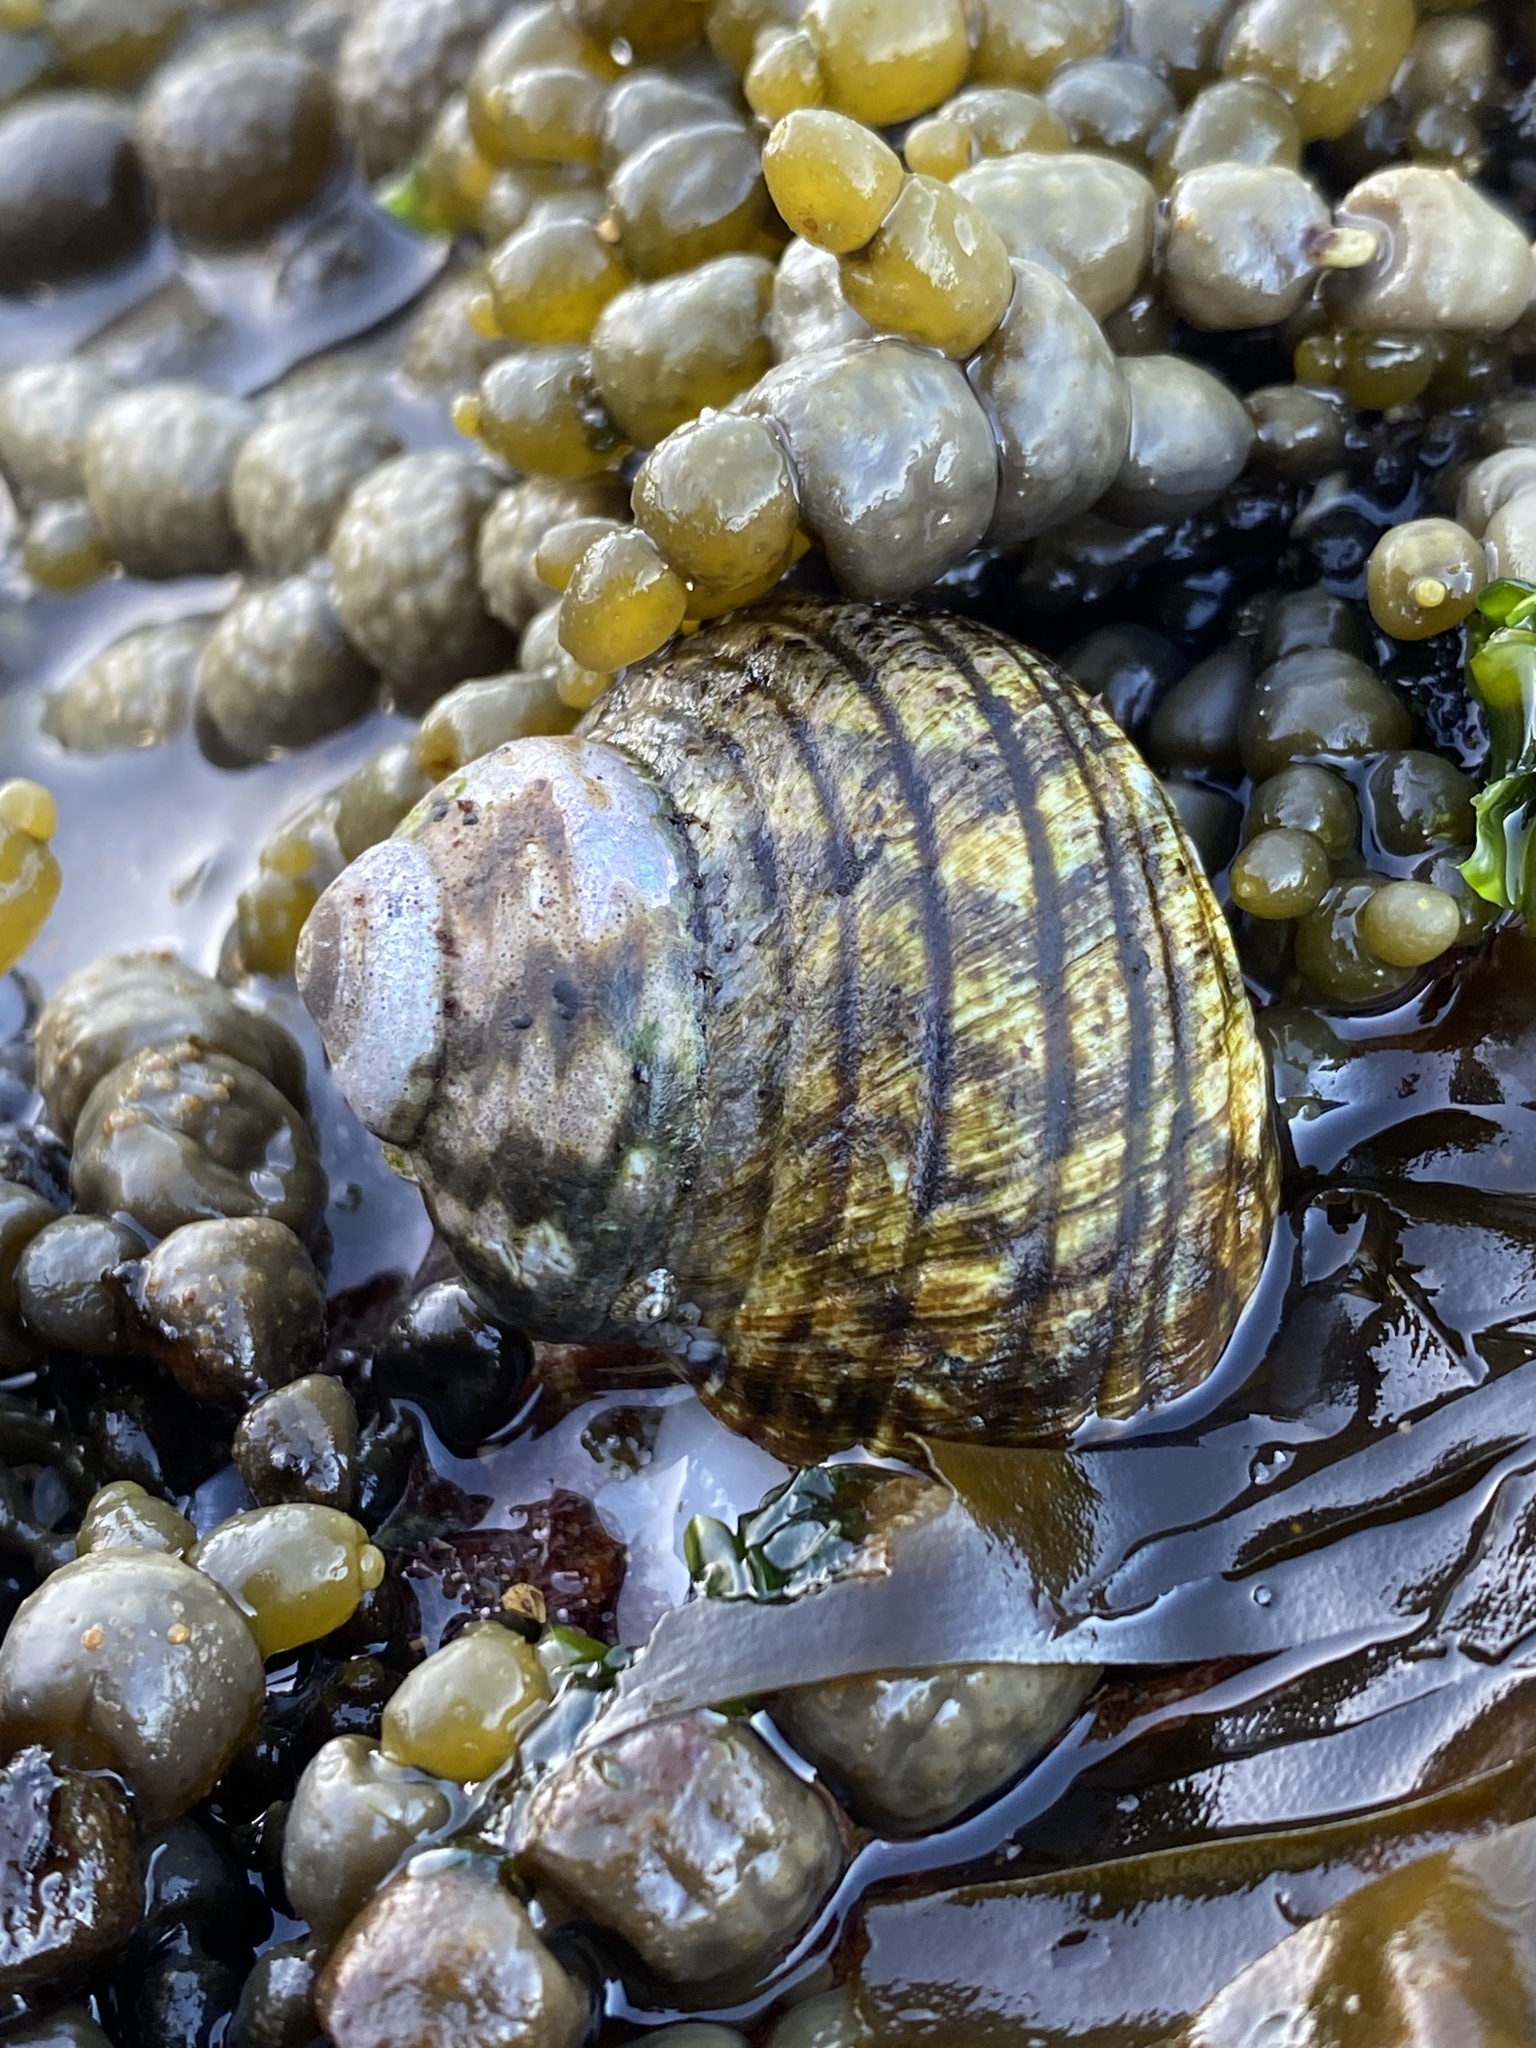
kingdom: Animalia
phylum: Mollusca
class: Gastropoda
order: Trochida
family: Turbinidae
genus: Lunella
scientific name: Lunella undulata
